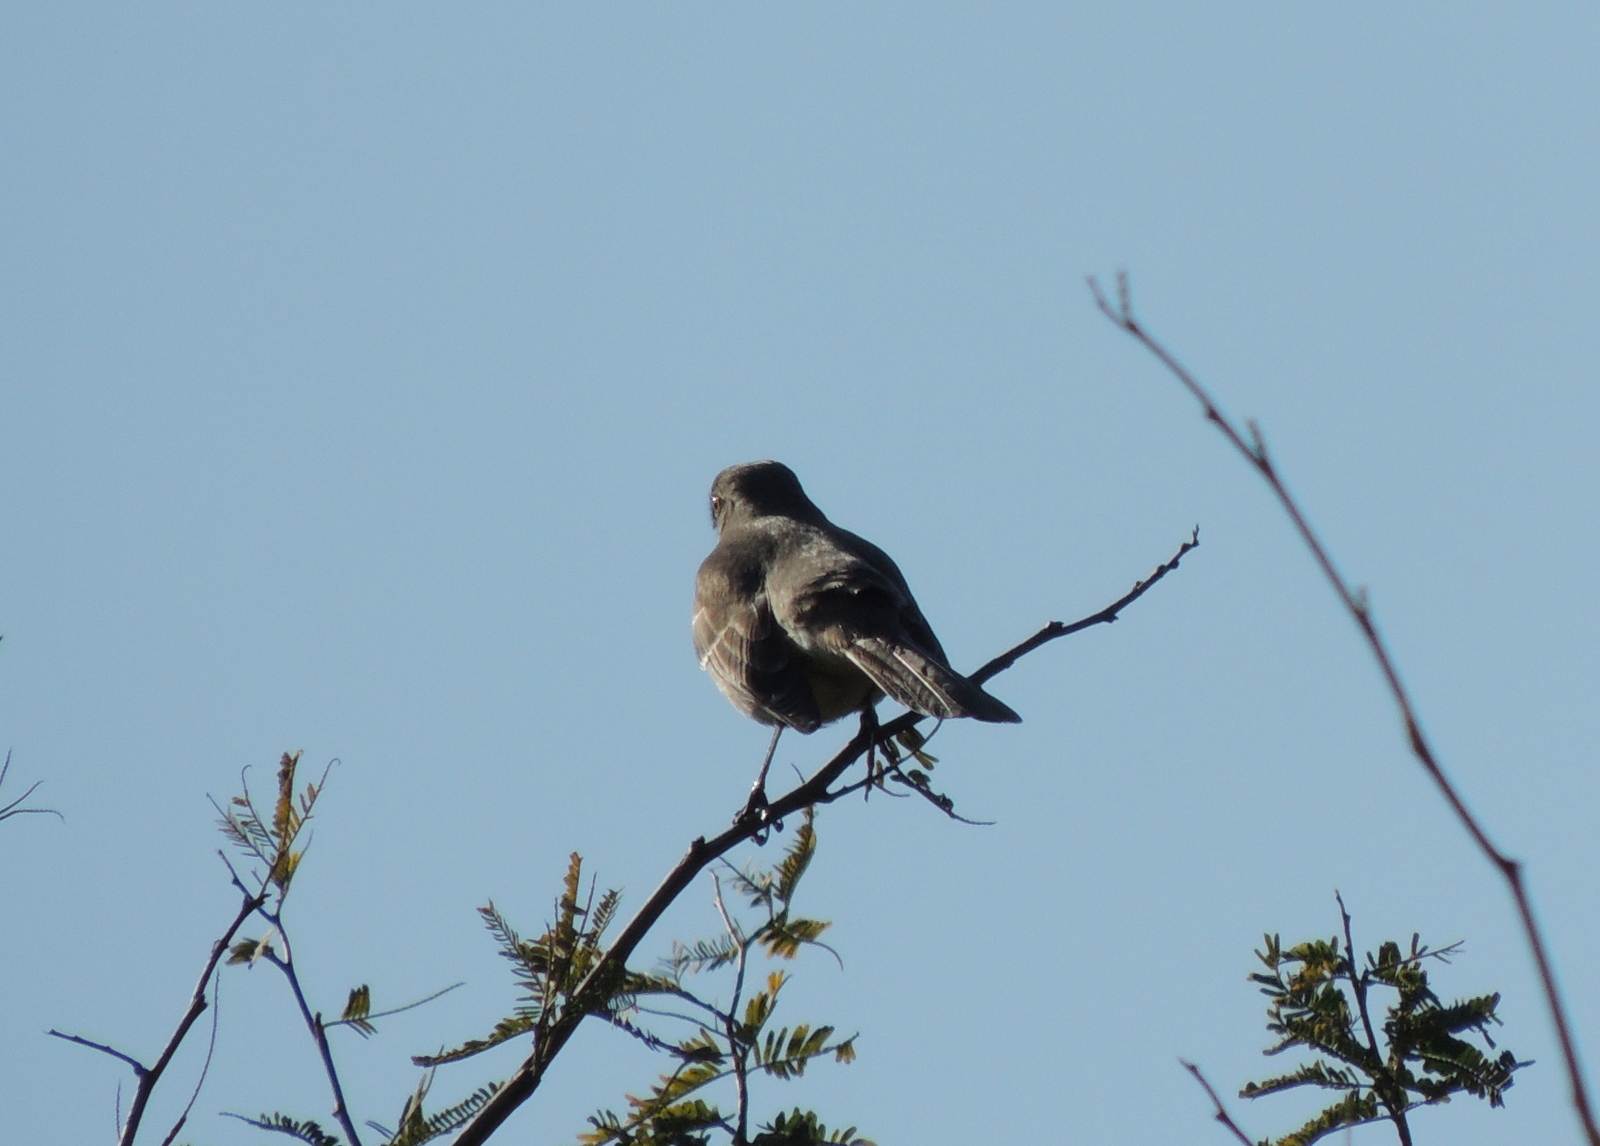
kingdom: Animalia
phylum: Chordata
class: Aves
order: Passeriformes
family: Mimidae
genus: Mimus
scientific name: Mimus polyglottos
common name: Northern mockingbird
